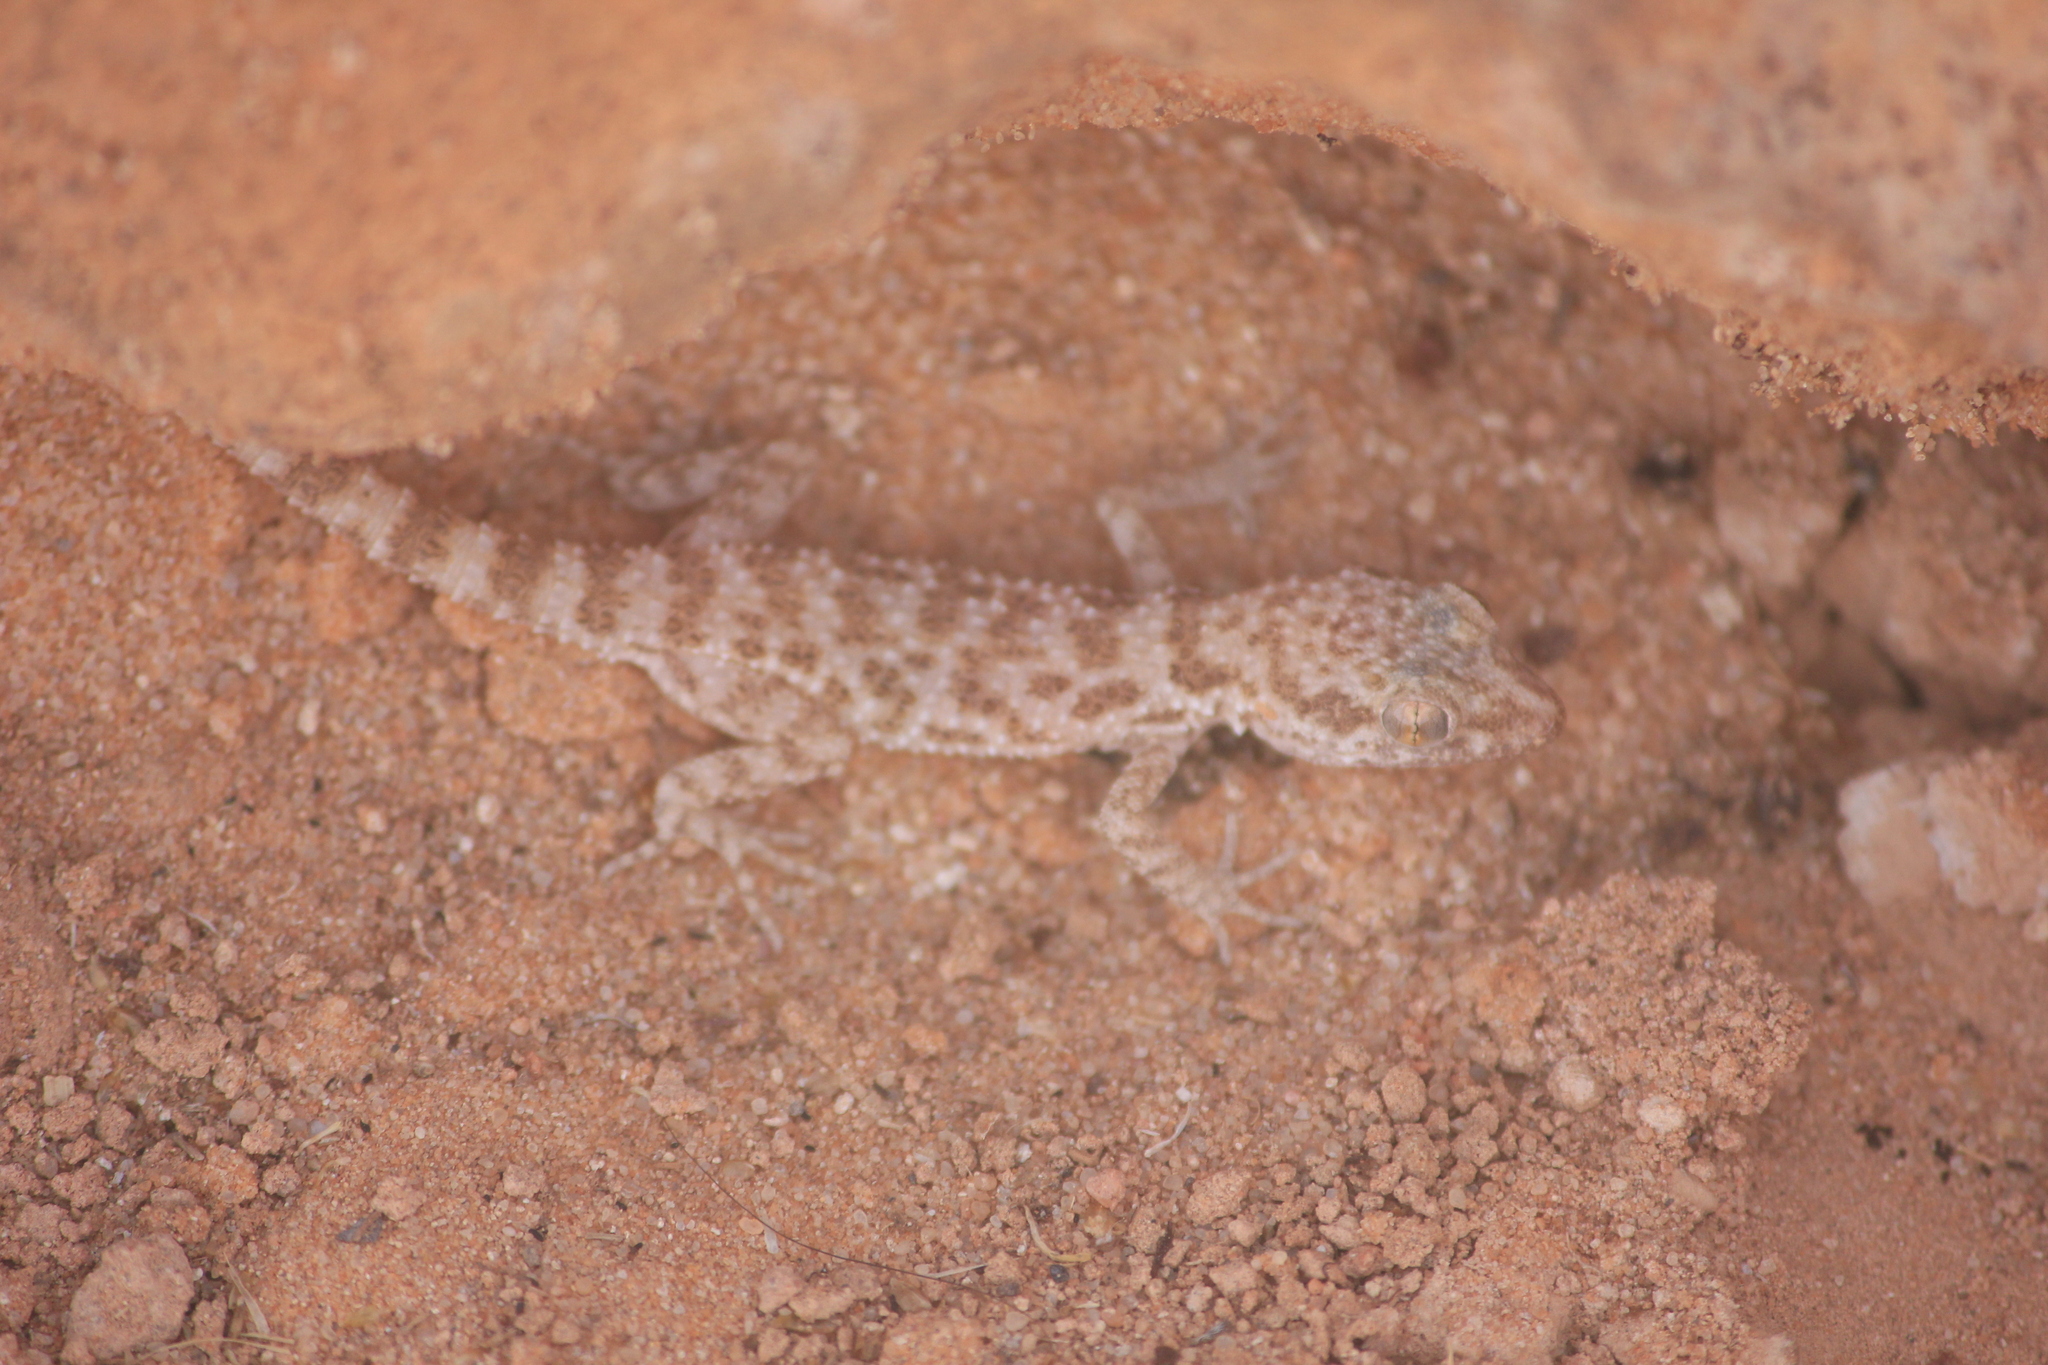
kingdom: Animalia
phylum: Chordata
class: Squamata
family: Gekkonidae
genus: Bunopus
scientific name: Bunopus tuberculatus
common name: Southern tuberculated gecko
